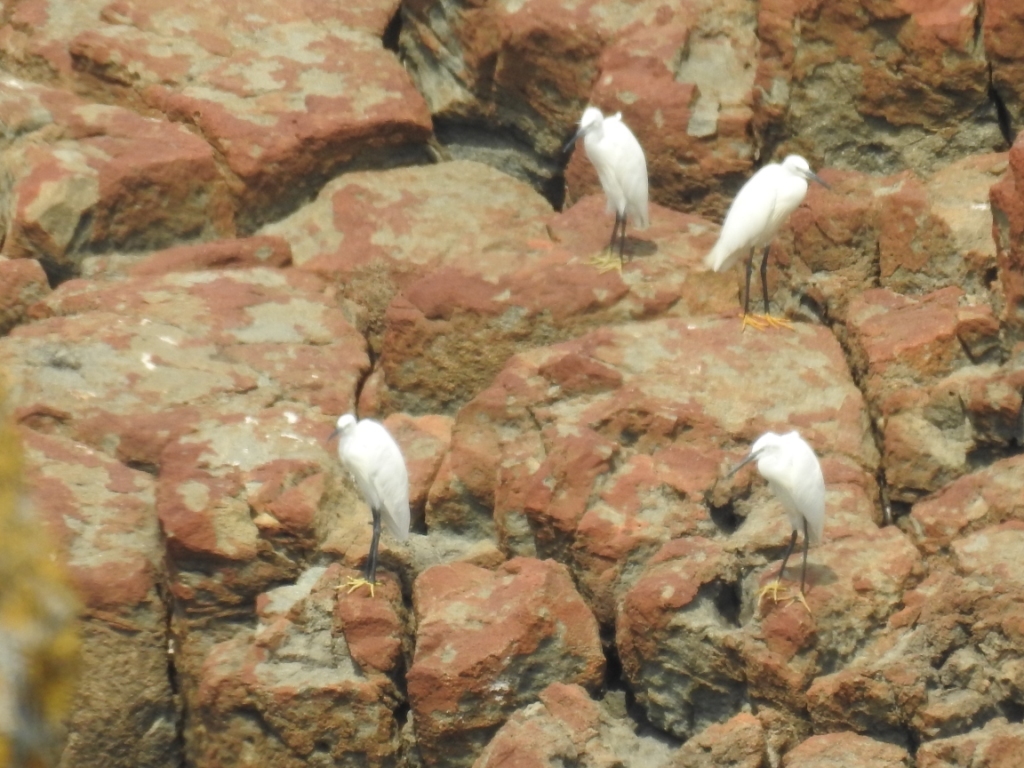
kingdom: Animalia
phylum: Chordata
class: Aves
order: Pelecaniformes
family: Ardeidae
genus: Egretta
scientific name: Egretta garzetta
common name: Little egret
